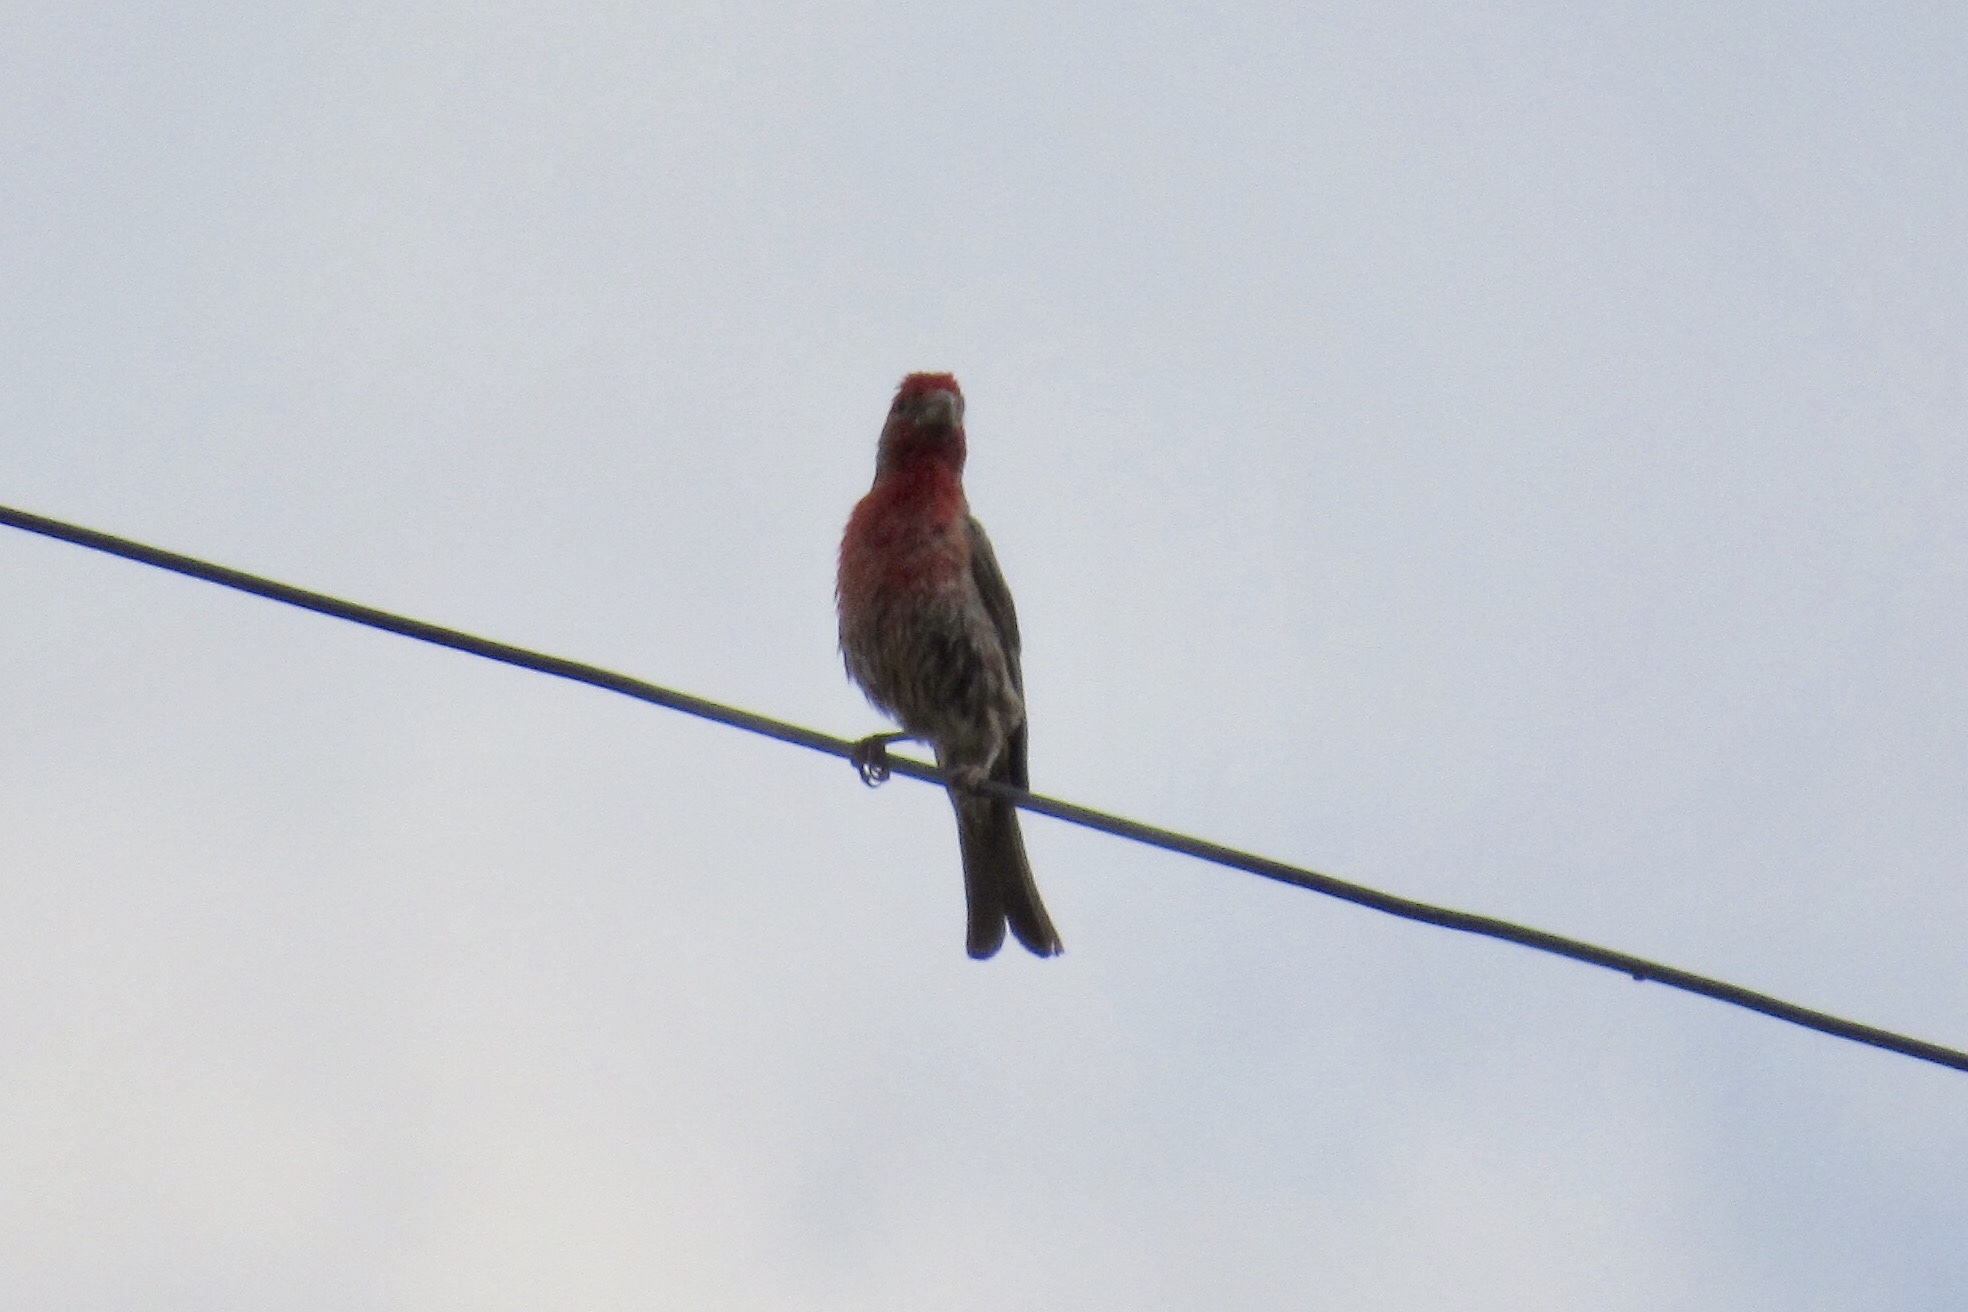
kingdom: Animalia
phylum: Chordata
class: Aves
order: Passeriformes
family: Fringillidae
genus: Haemorhous
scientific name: Haemorhous mexicanus
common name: House finch
